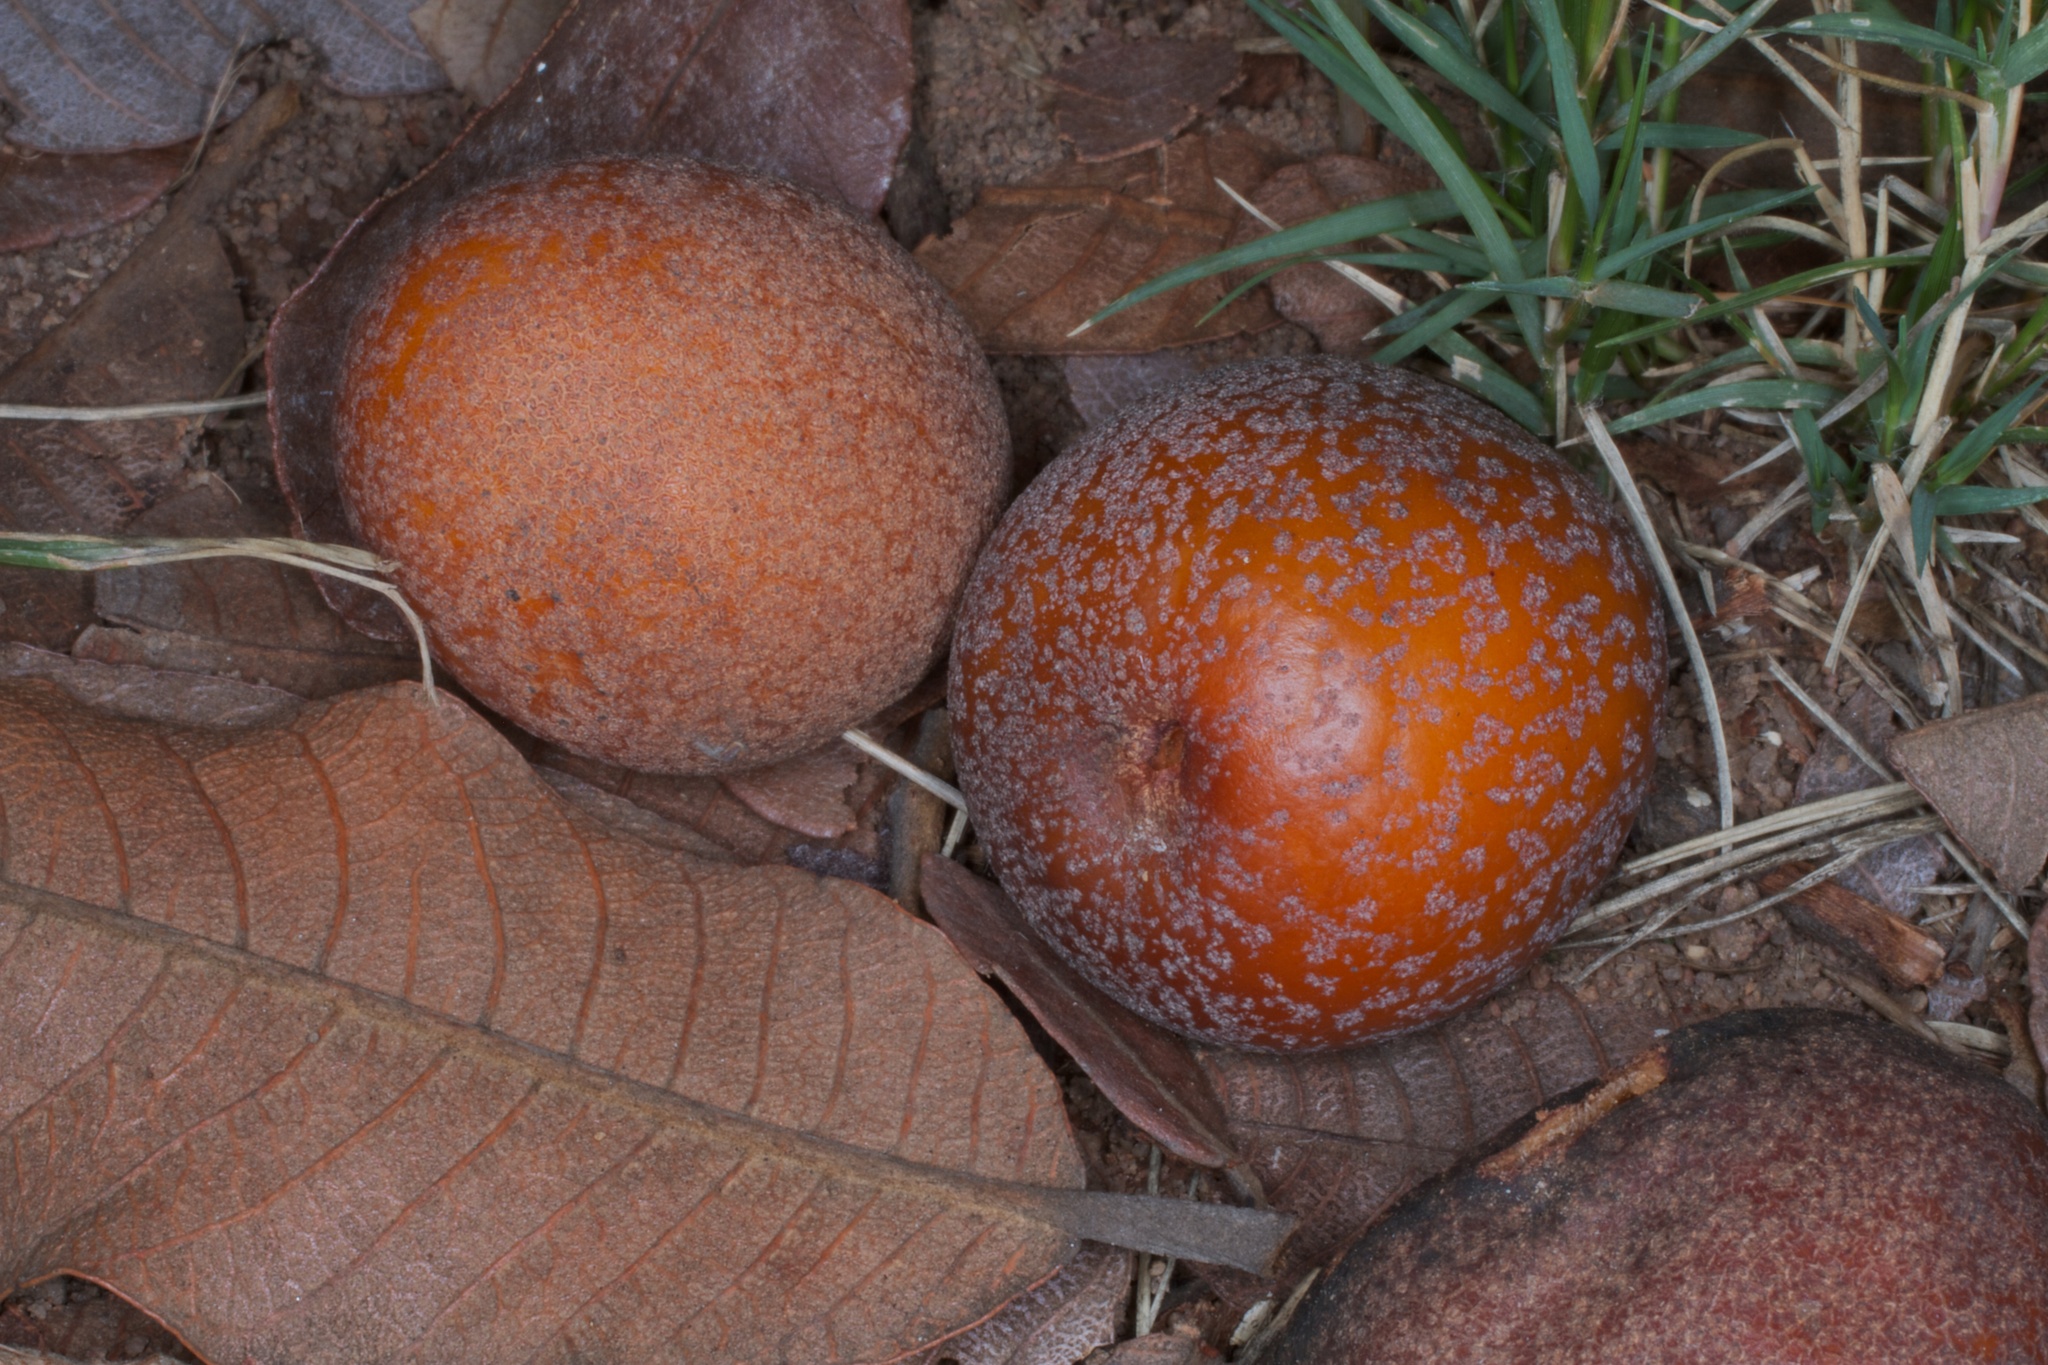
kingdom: Plantae
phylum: Tracheophyta
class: Magnoliopsida
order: Malpighiales
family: Chrysobalanaceae
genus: Parinari
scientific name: Parinari curatellifolia
